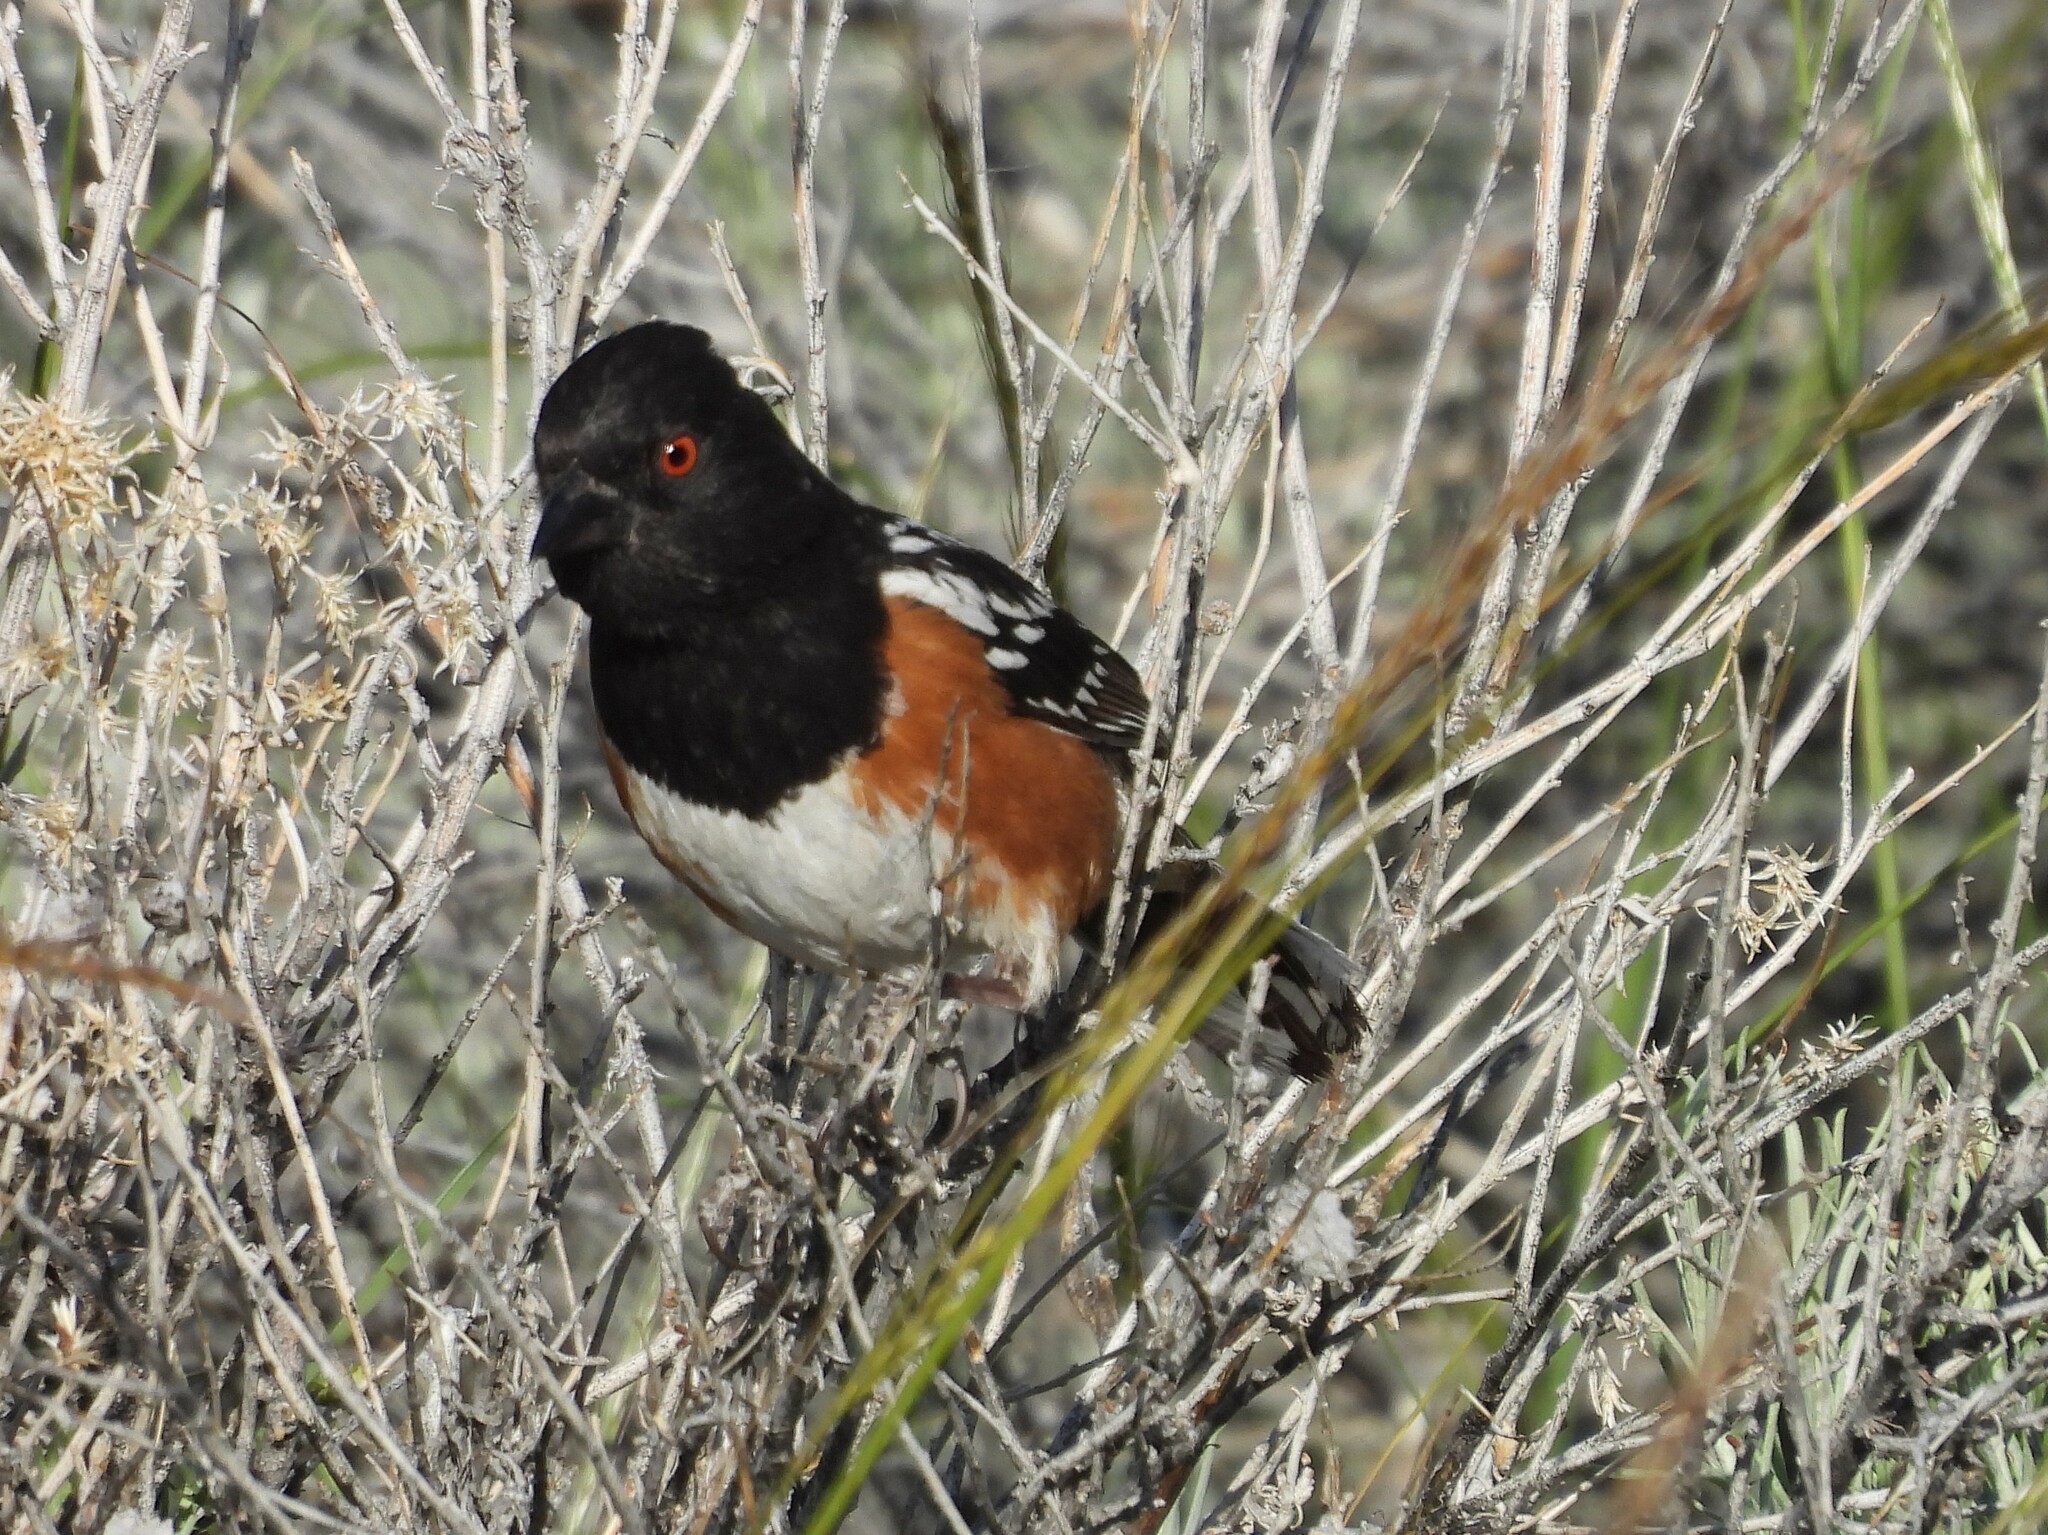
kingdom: Animalia
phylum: Chordata
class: Aves
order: Passeriformes
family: Passerellidae
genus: Pipilo
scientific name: Pipilo maculatus
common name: Spotted towhee
